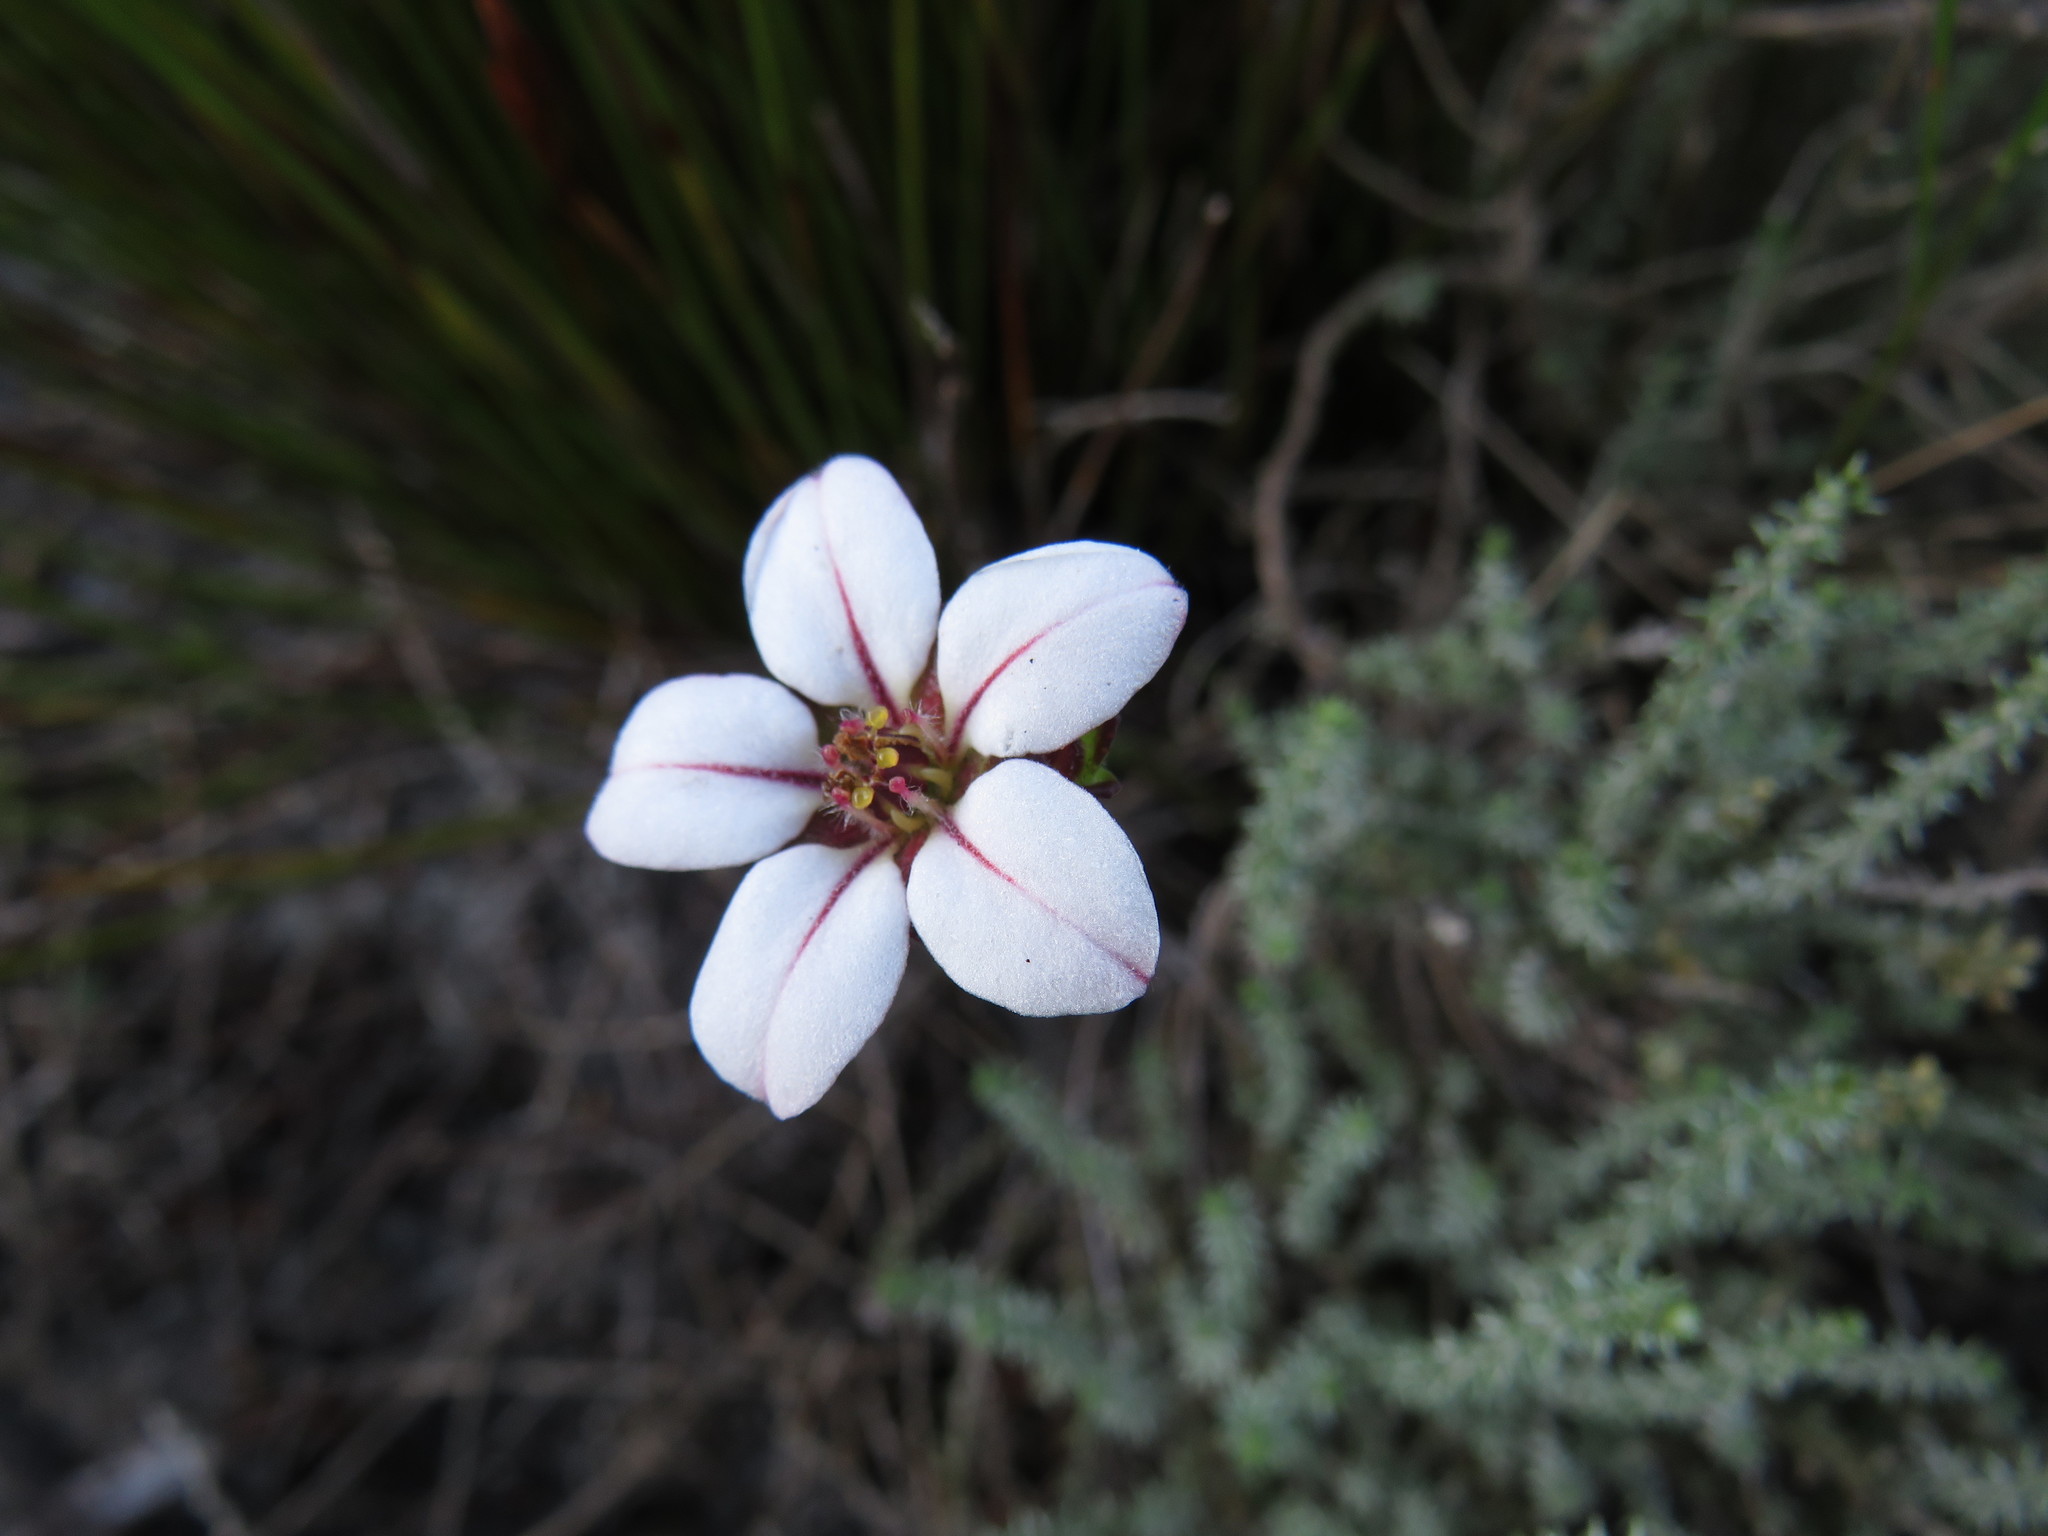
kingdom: Plantae
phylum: Tracheophyta
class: Magnoliopsida
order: Sapindales
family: Rutaceae
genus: Adenandra
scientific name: Adenandra villosa
